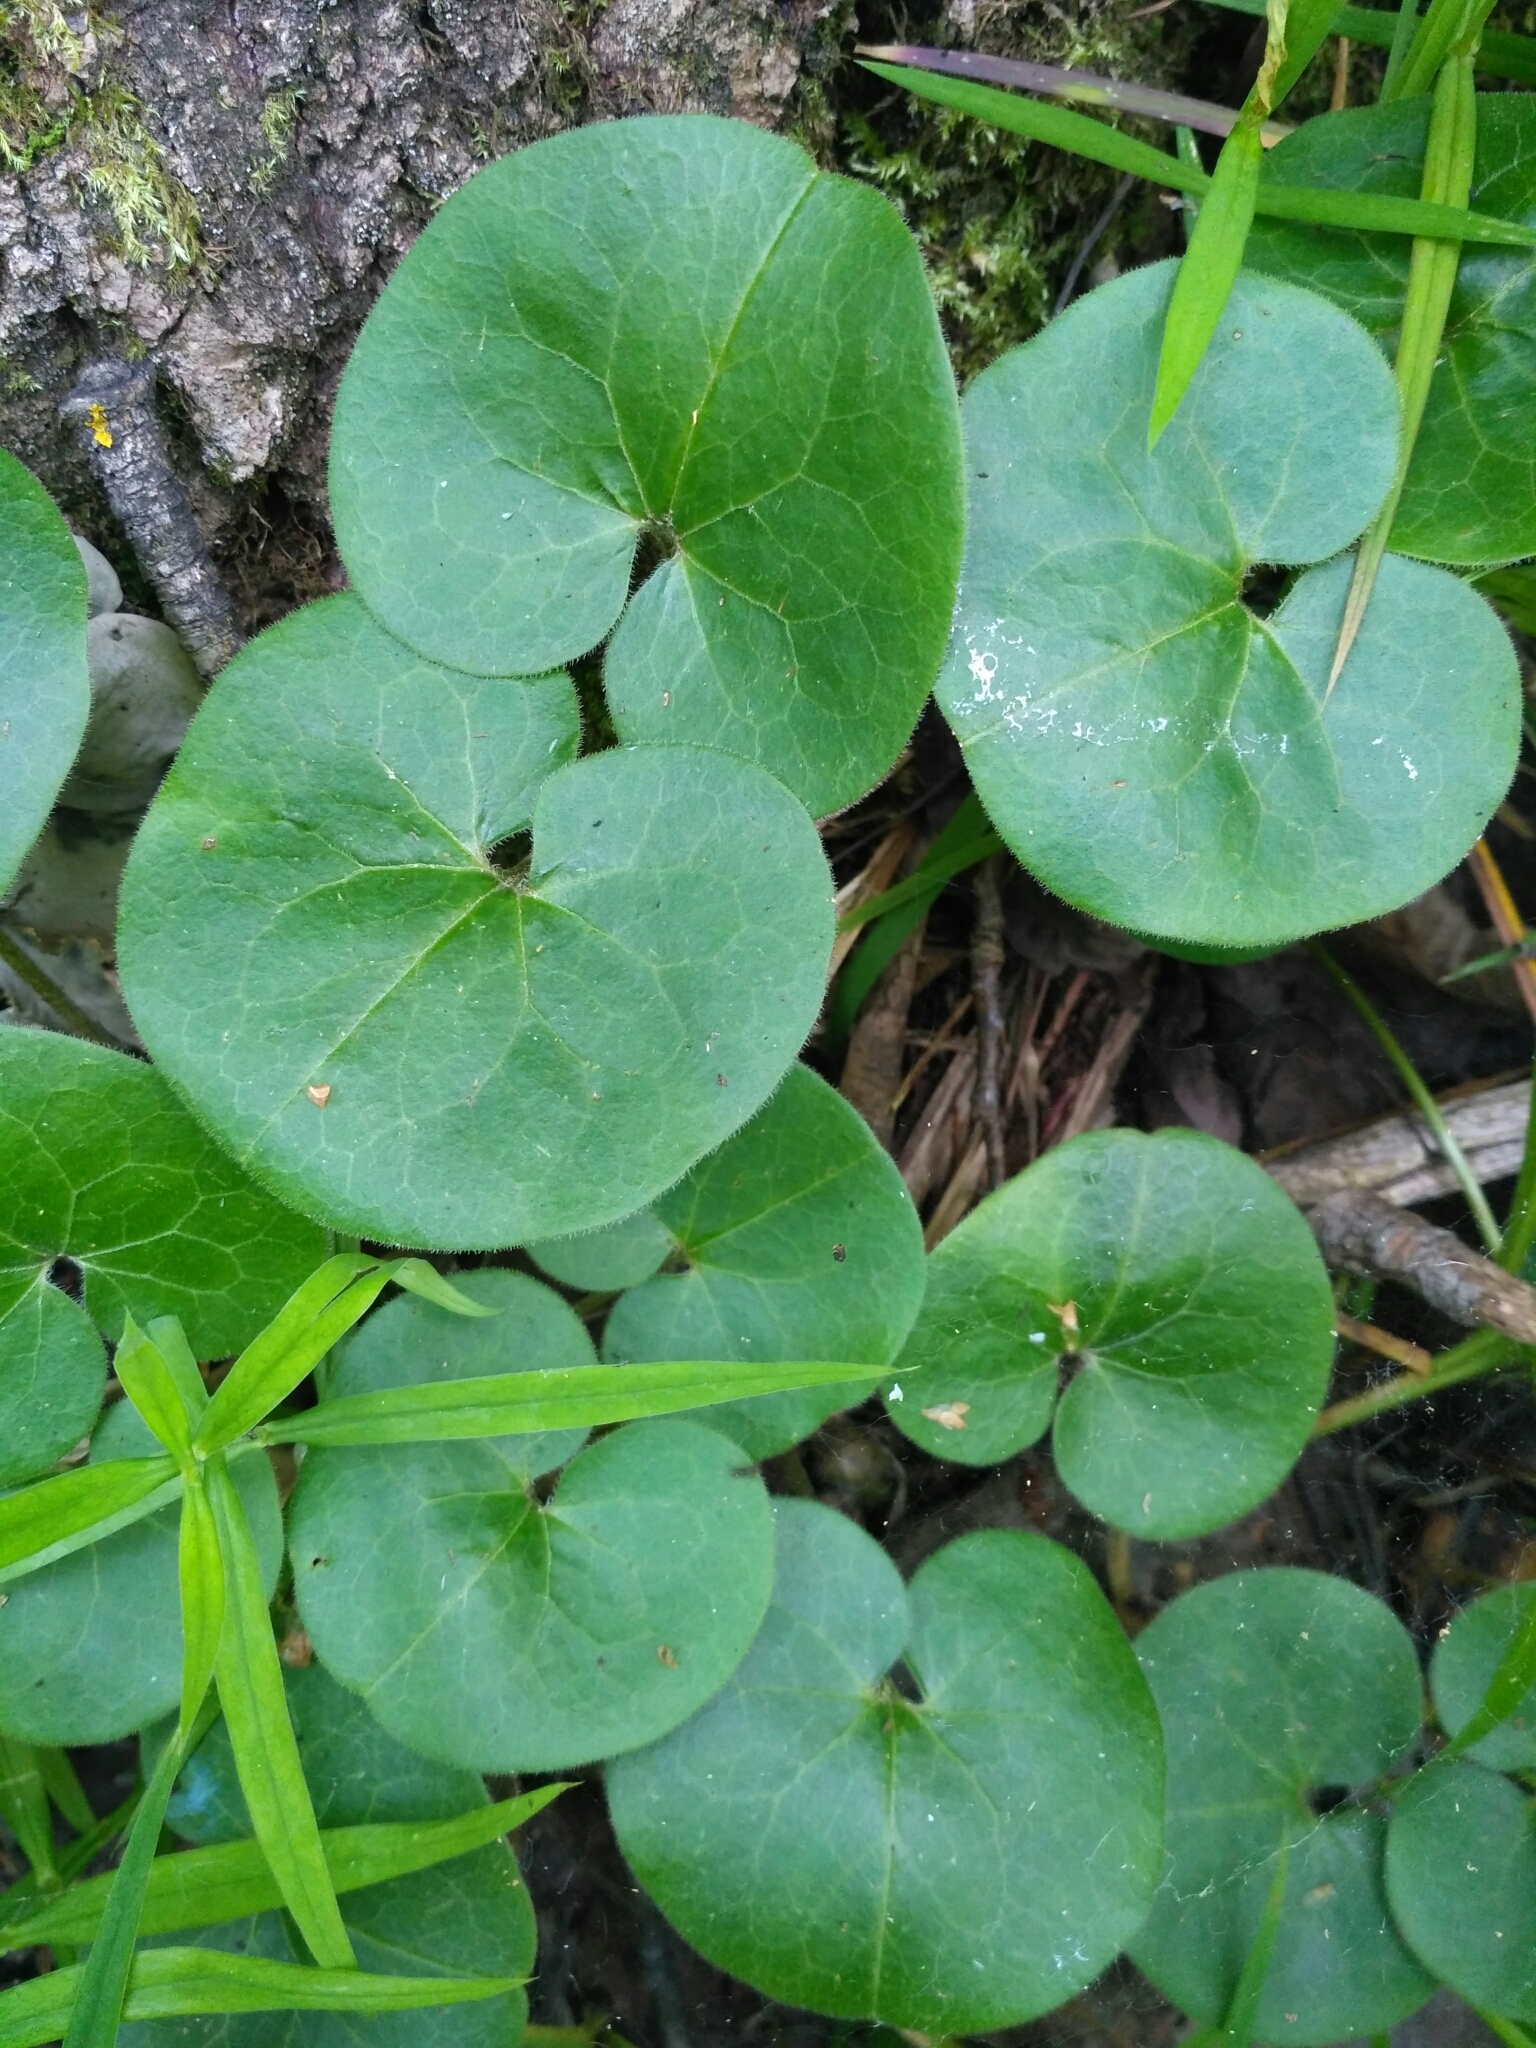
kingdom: Plantae
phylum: Tracheophyta
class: Magnoliopsida
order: Piperales
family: Aristolochiaceae
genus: Asarum
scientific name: Asarum europaeum
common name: Asarabacca
